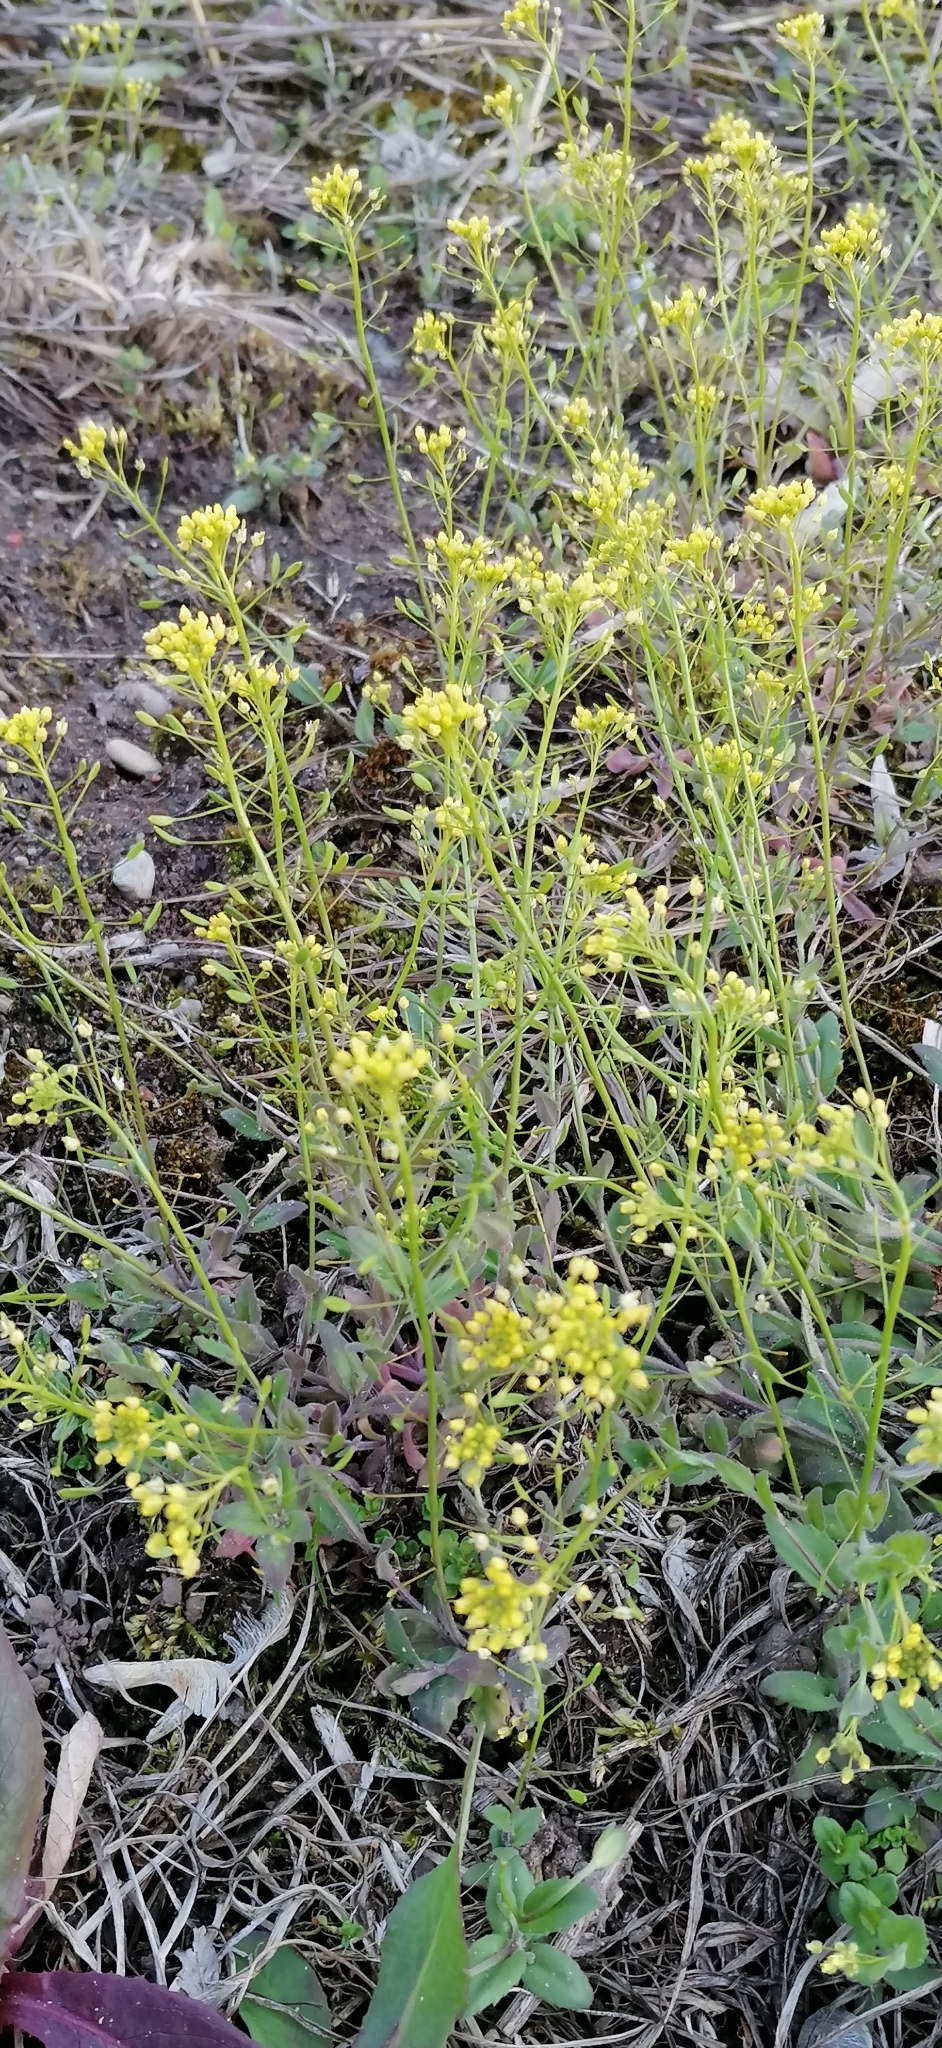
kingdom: Plantae
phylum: Tracheophyta
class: Magnoliopsida
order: Brassicales
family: Brassicaceae
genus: Draba
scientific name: Draba nemorosa
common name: Wood whitlow-grass
